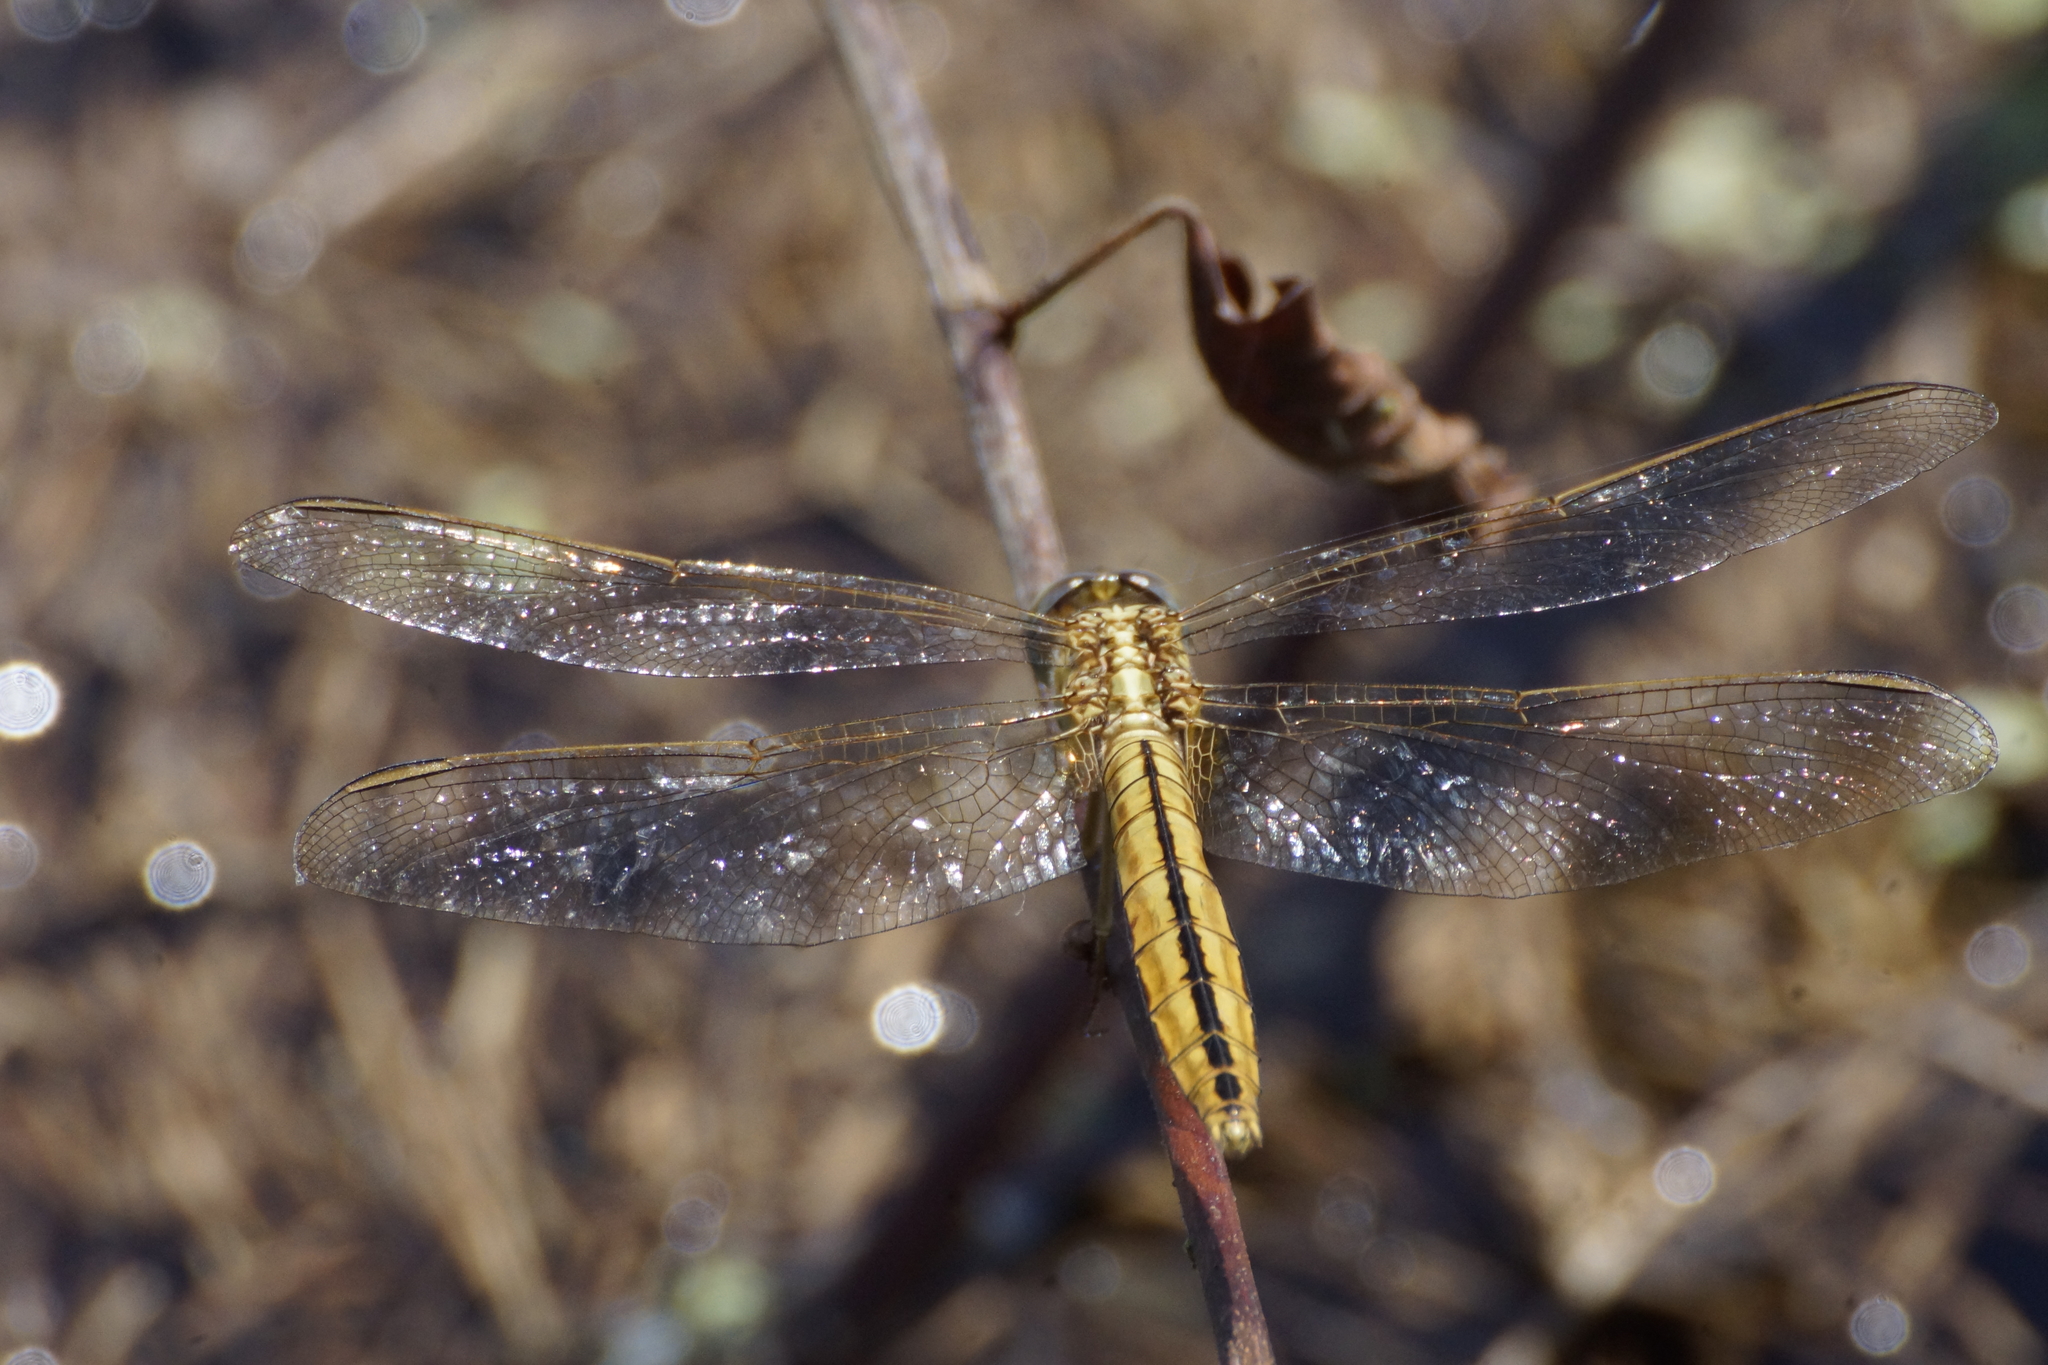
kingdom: Animalia
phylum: Arthropoda
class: Insecta
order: Odonata
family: Libellulidae
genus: Crocothemis
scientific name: Crocothemis nigrifrons
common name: Black-headed skimmer
